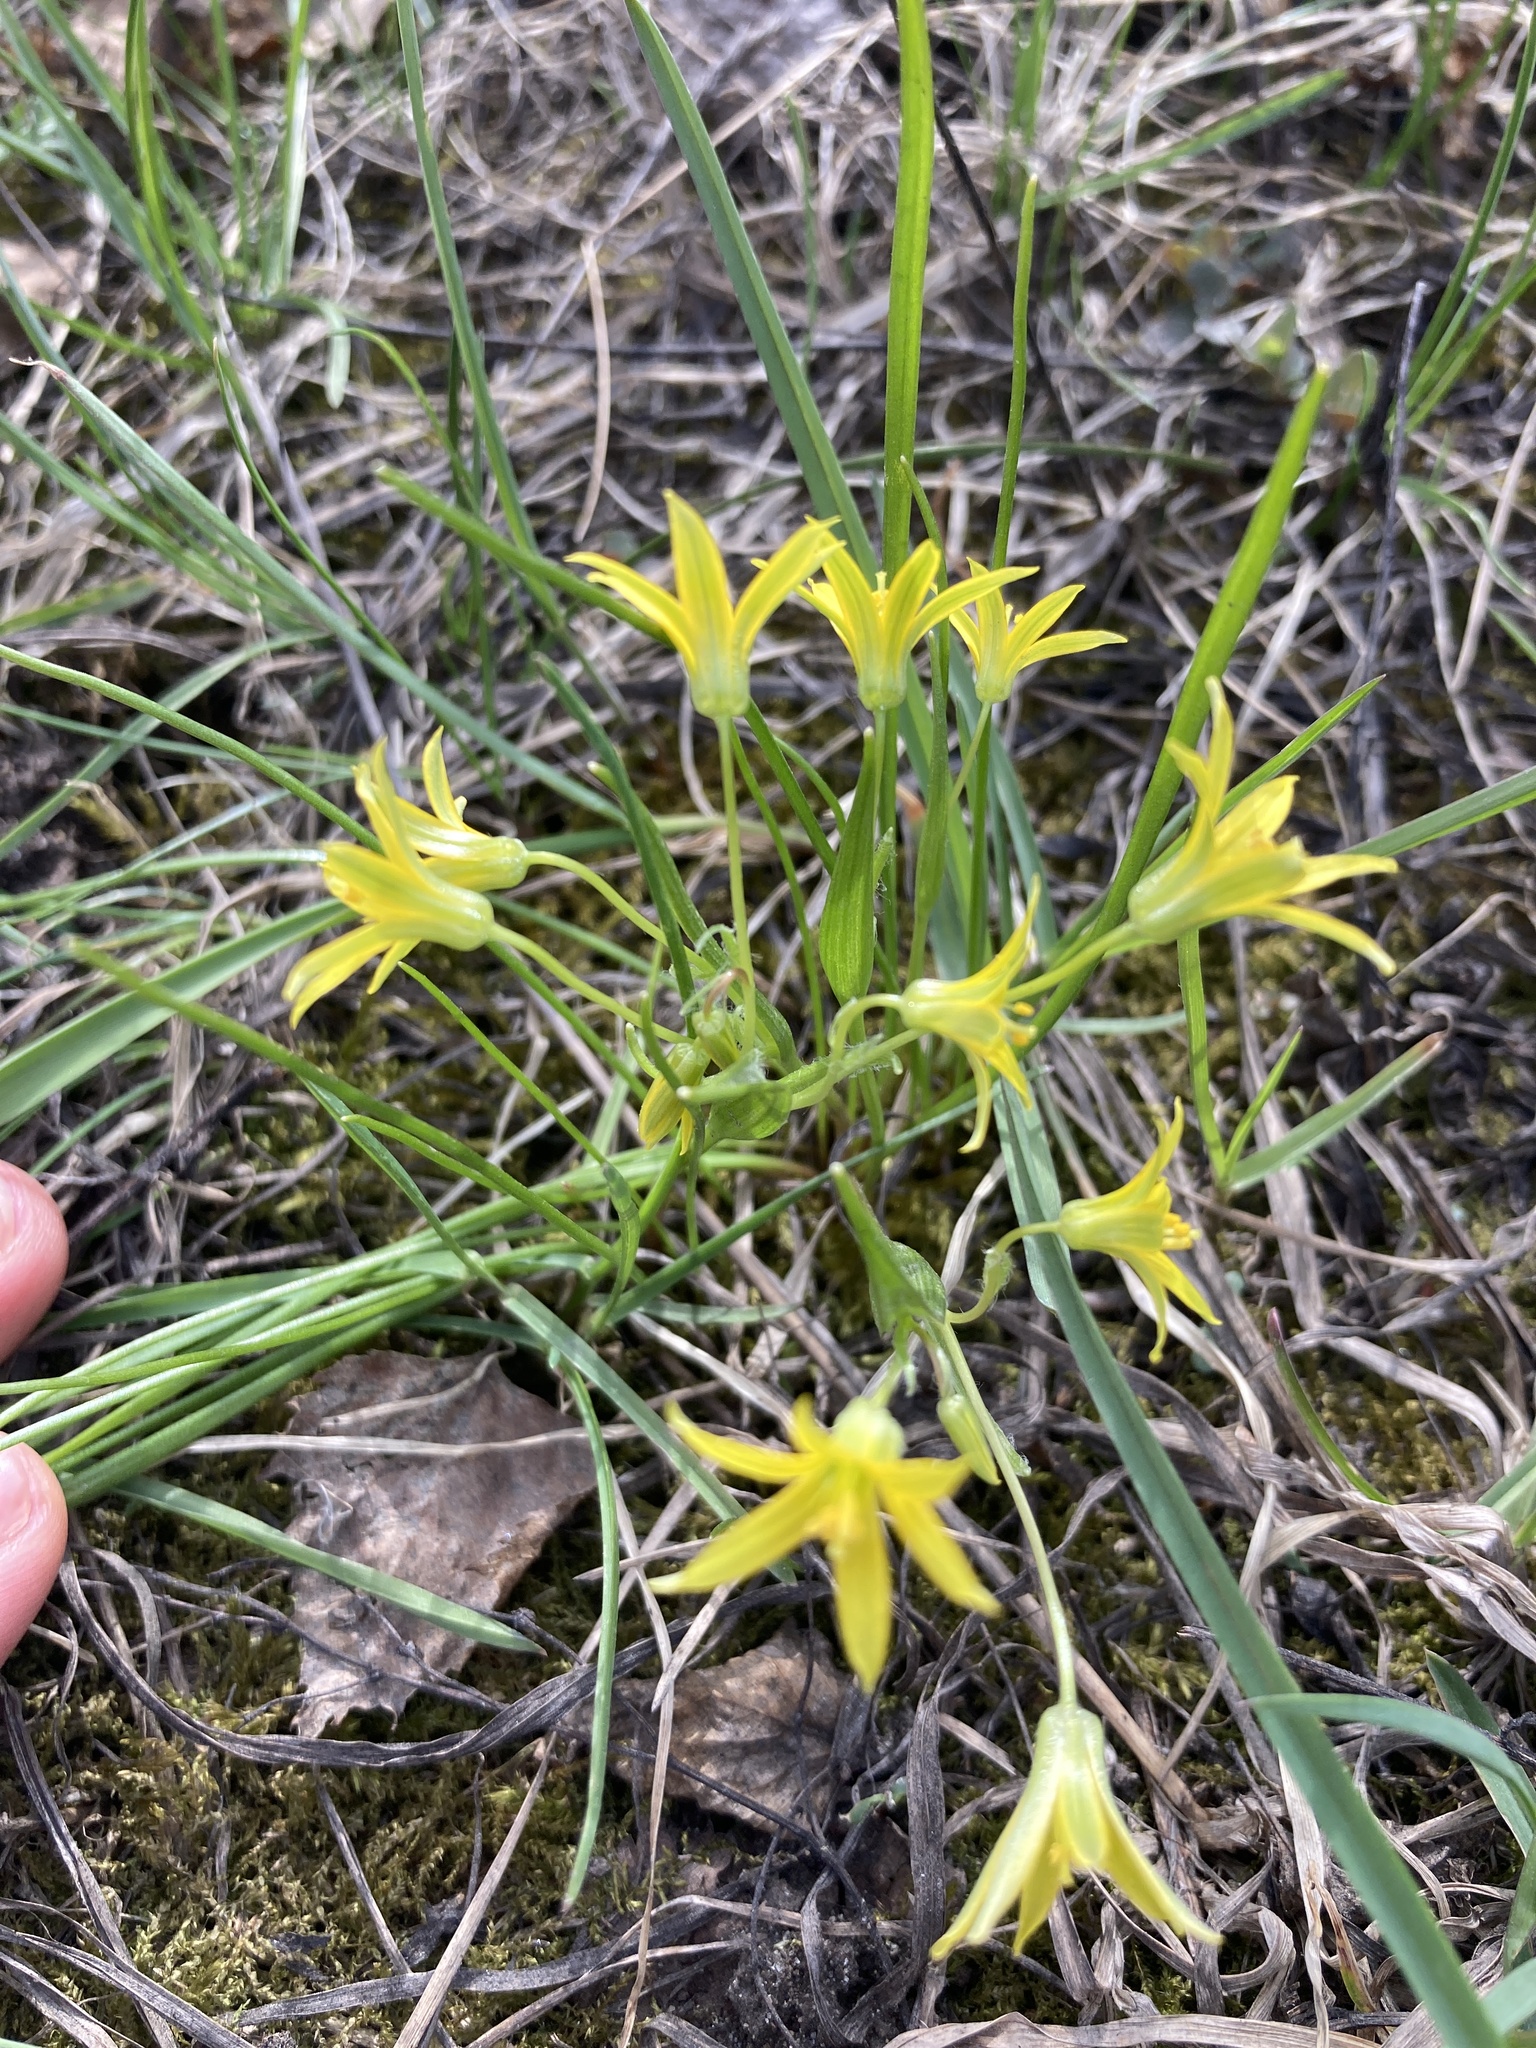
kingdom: Plantae
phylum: Tracheophyta
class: Liliopsida
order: Liliales
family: Liliaceae
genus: Gagea
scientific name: Gagea minima
